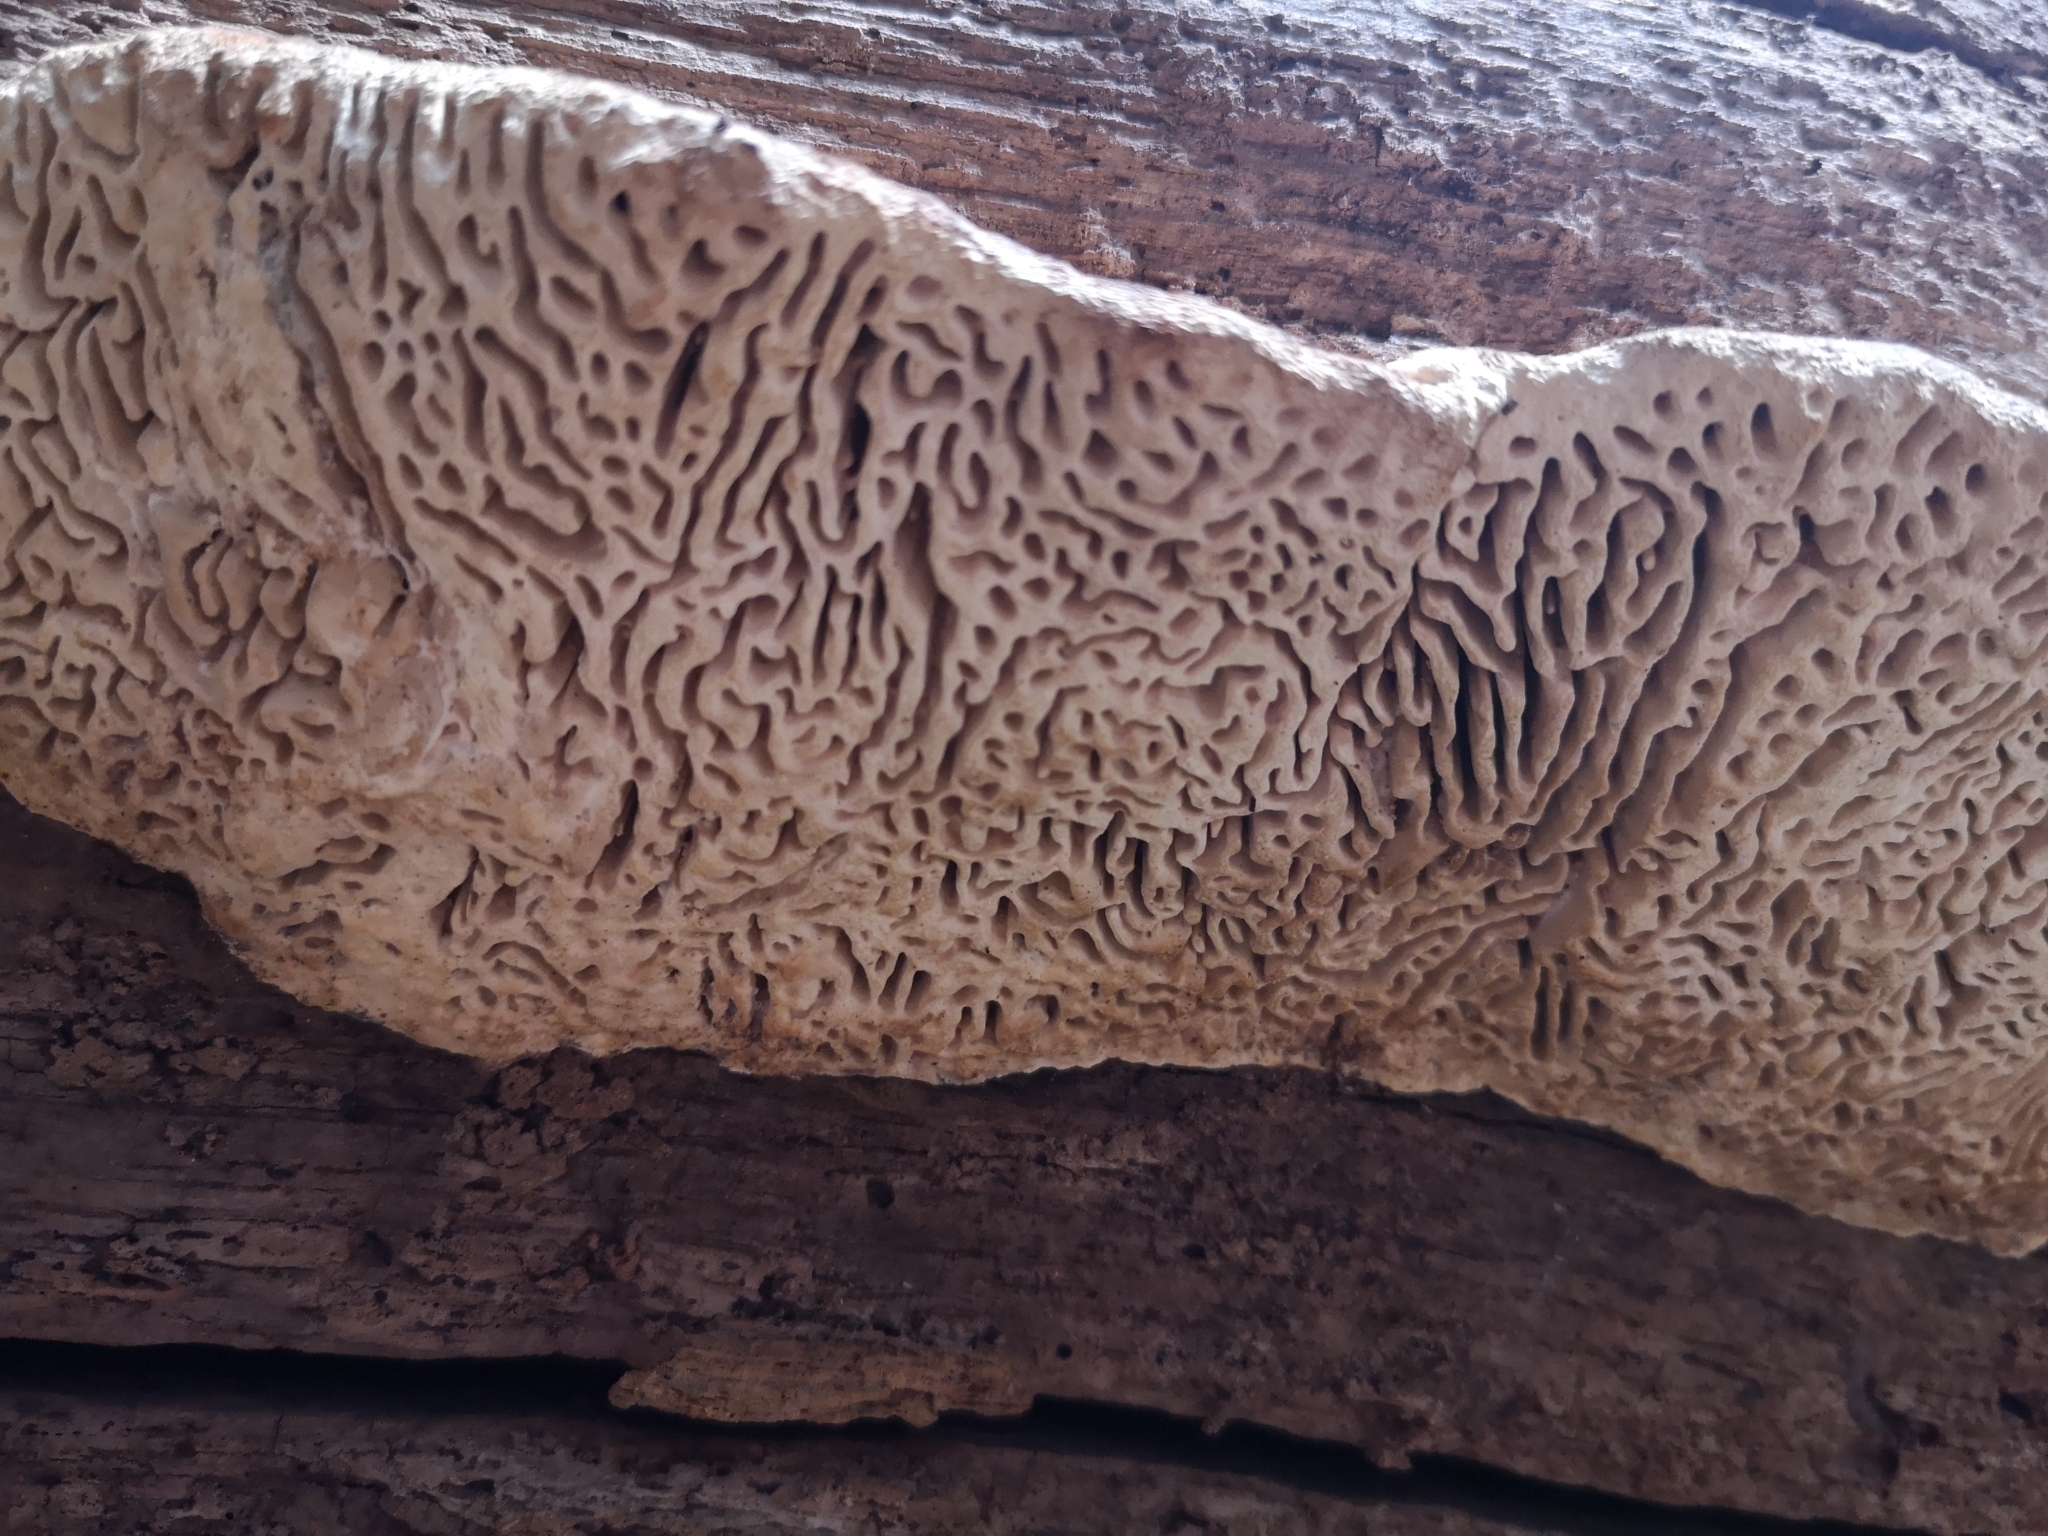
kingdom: Fungi
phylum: Basidiomycota
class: Agaricomycetes
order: Polyporales
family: Fomitopsidaceae
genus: Fomitopsis
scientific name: Fomitopsis
